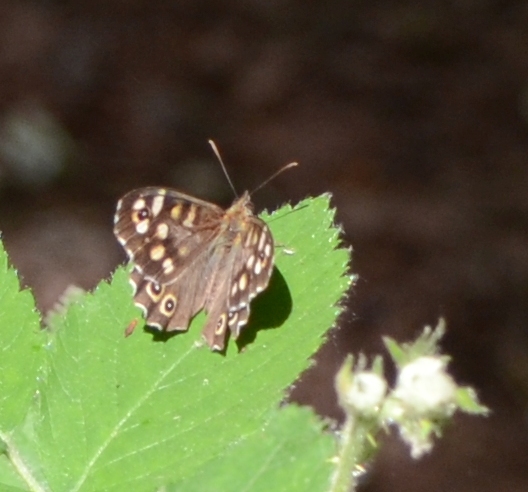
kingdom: Animalia
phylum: Arthropoda
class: Insecta
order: Lepidoptera
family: Nymphalidae
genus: Pararge
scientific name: Pararge aegeria
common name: Speckled wood
